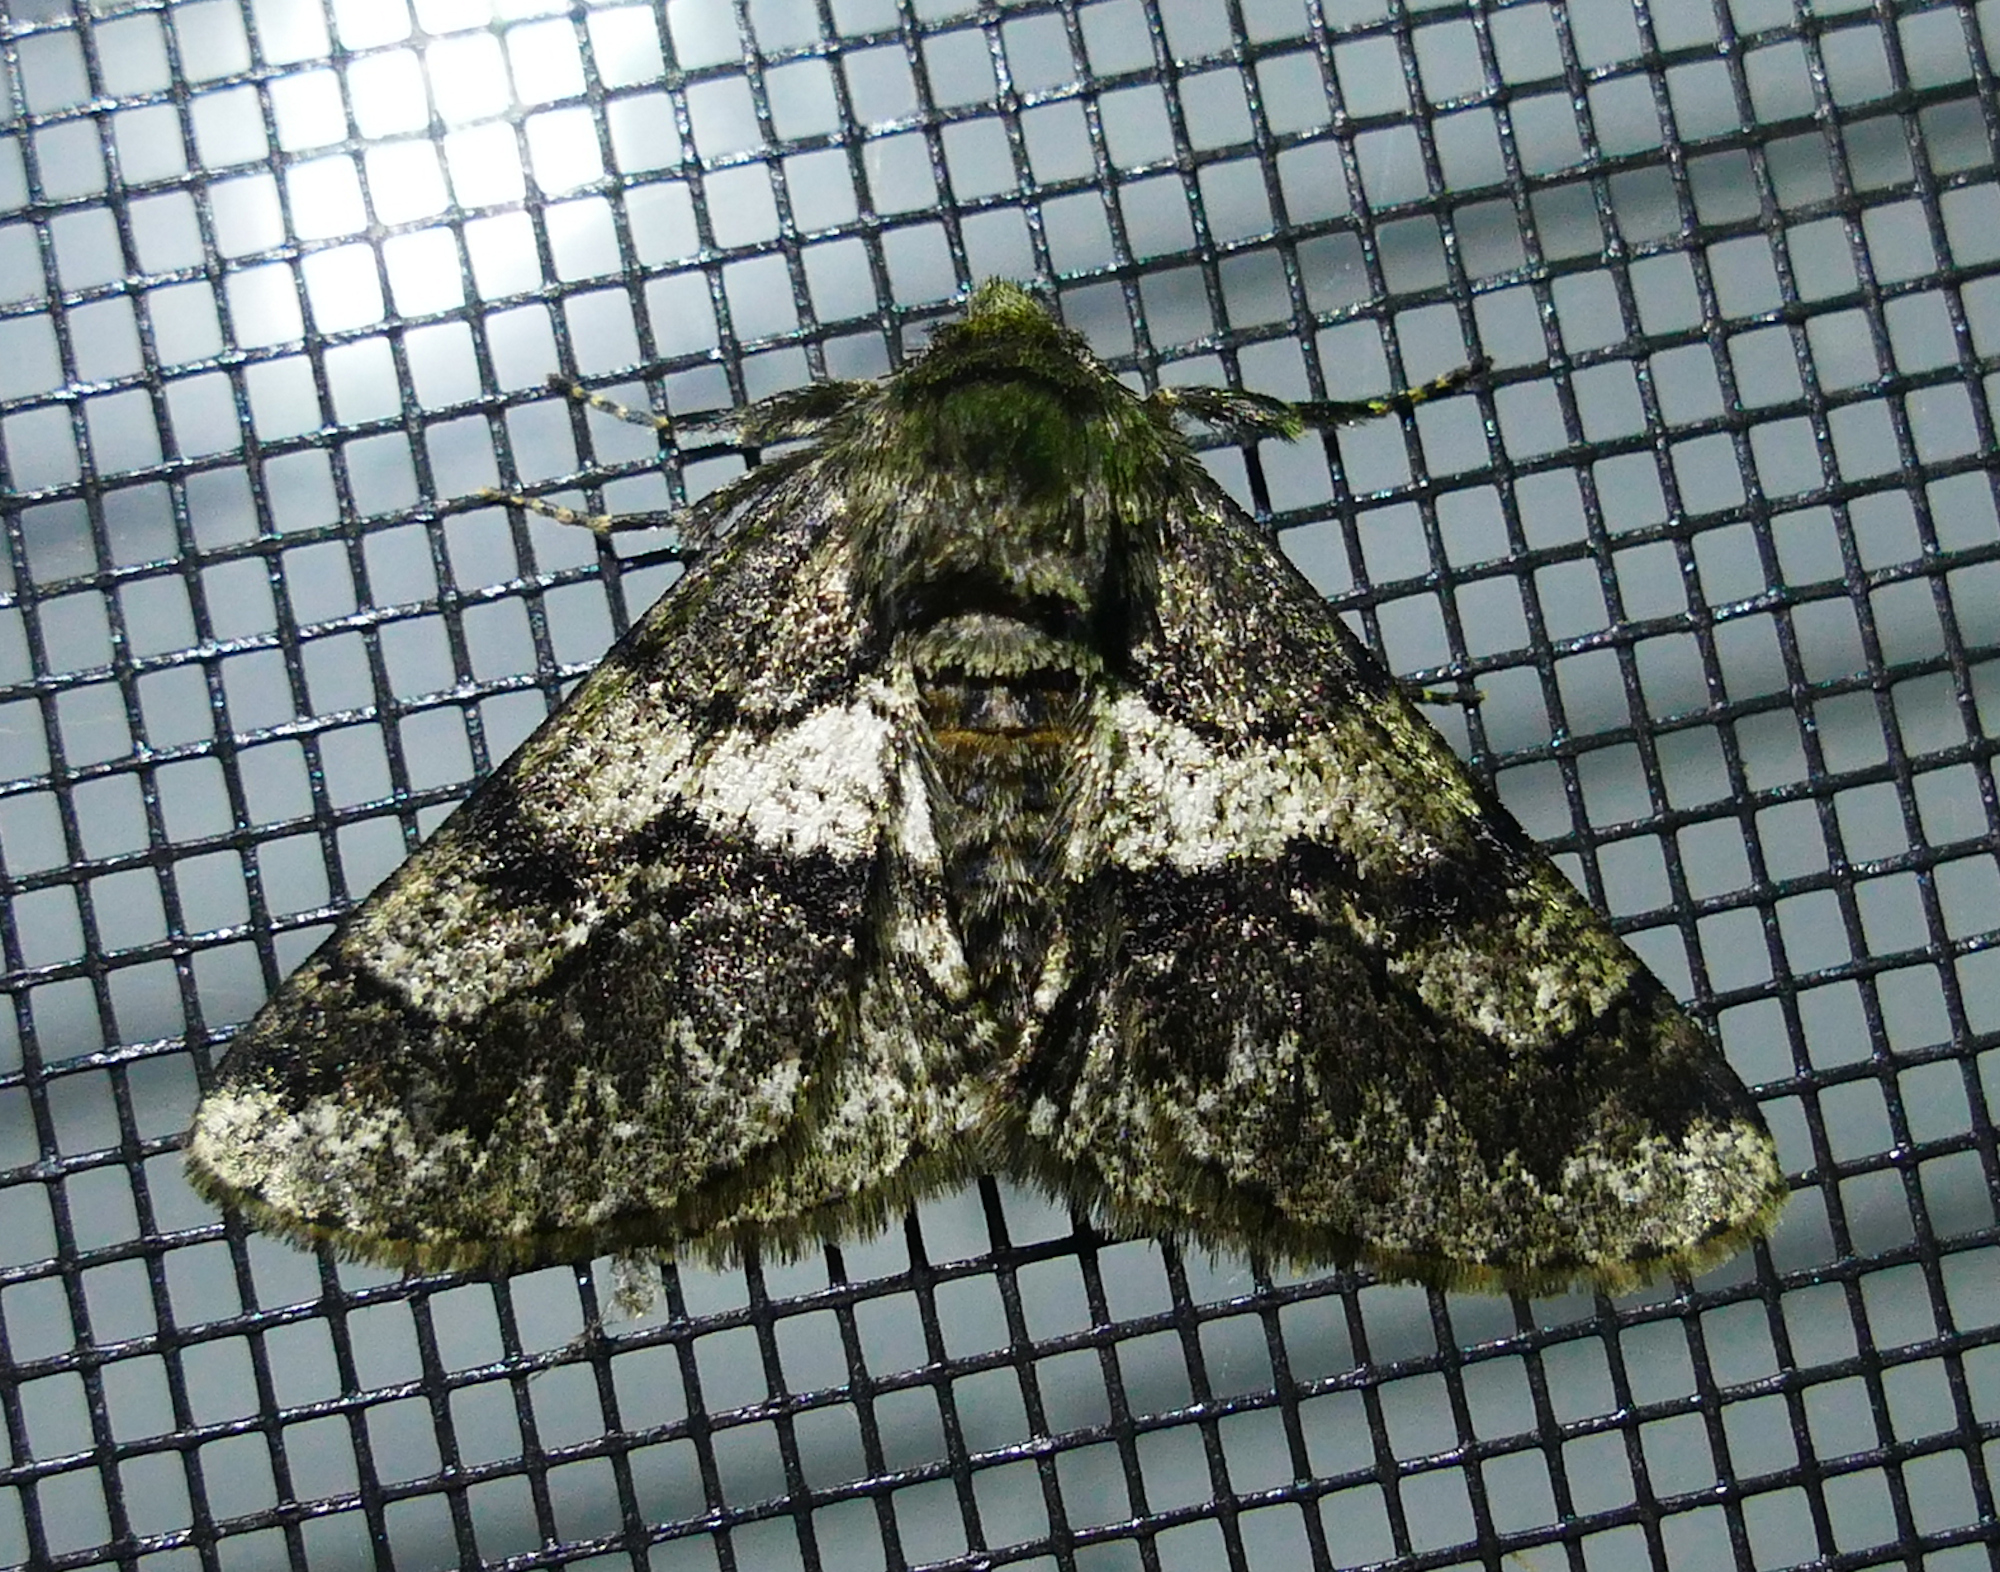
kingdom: Animalia
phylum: Arthropoda
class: Insecta
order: Lepidoptera
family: Geometridae
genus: Lycia
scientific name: Lycia ypsilon
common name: Wooly gray
